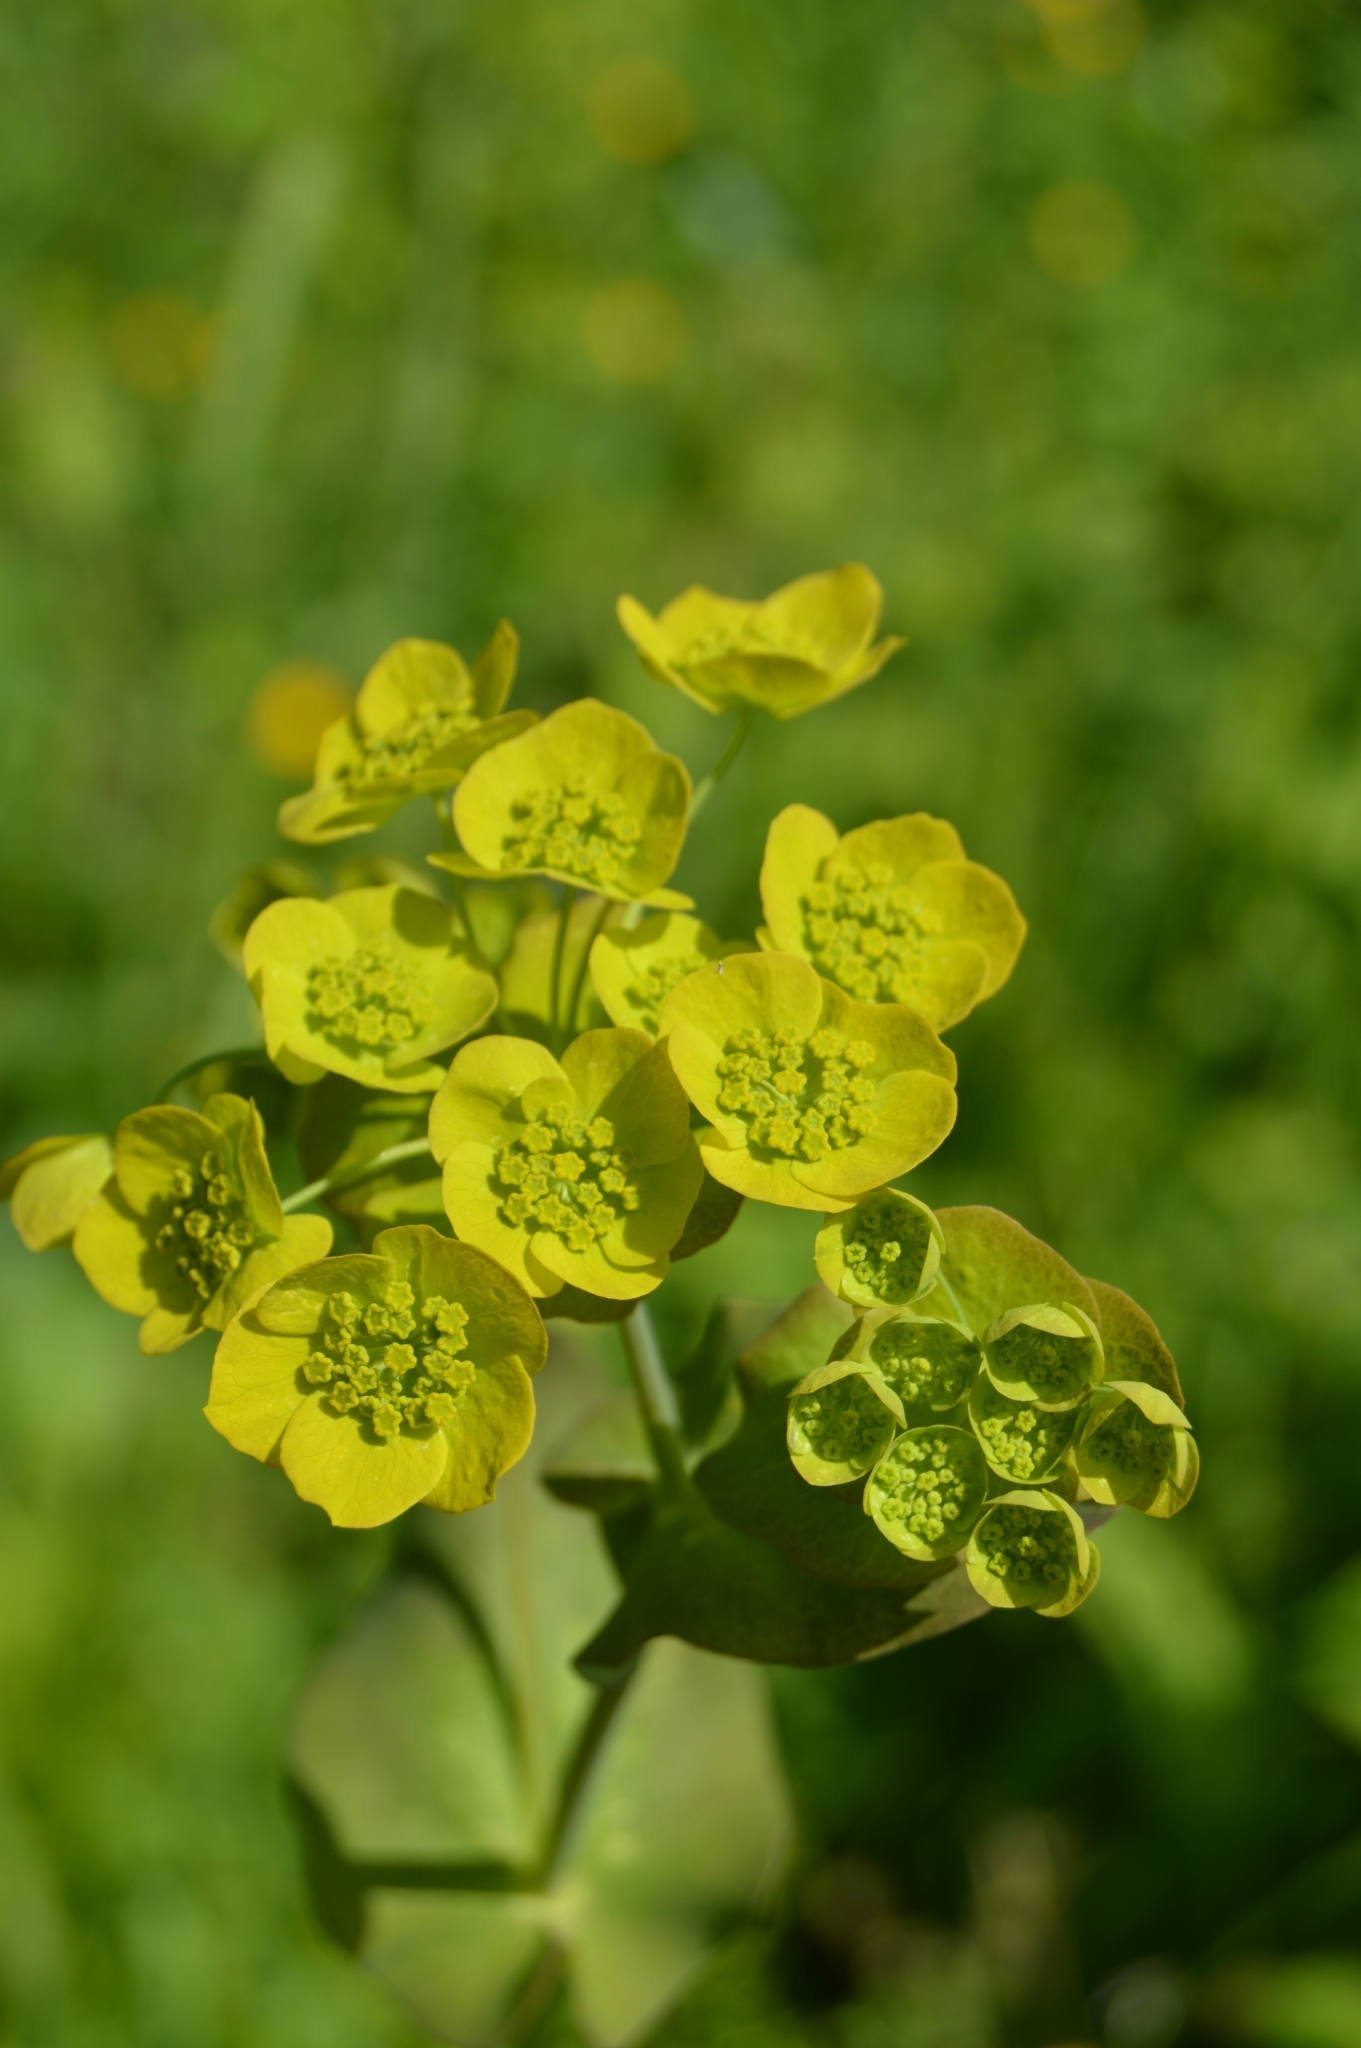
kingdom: Plantae
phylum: Tracheophyta
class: Magnoliopsida
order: Apiales
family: Apiaceae
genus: Bupleurum
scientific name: Bupleurum aureum
